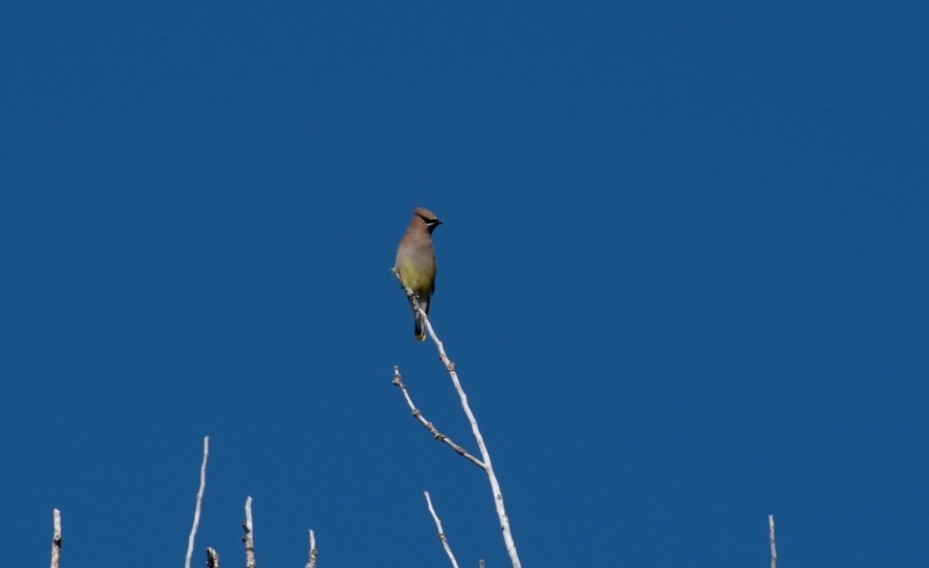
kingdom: Animalia
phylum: Chordata
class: Aves
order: Passeriformes
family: Bombycillidae
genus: Bombycilla
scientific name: Bombycilla cedrorum
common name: Cedar waxwing
